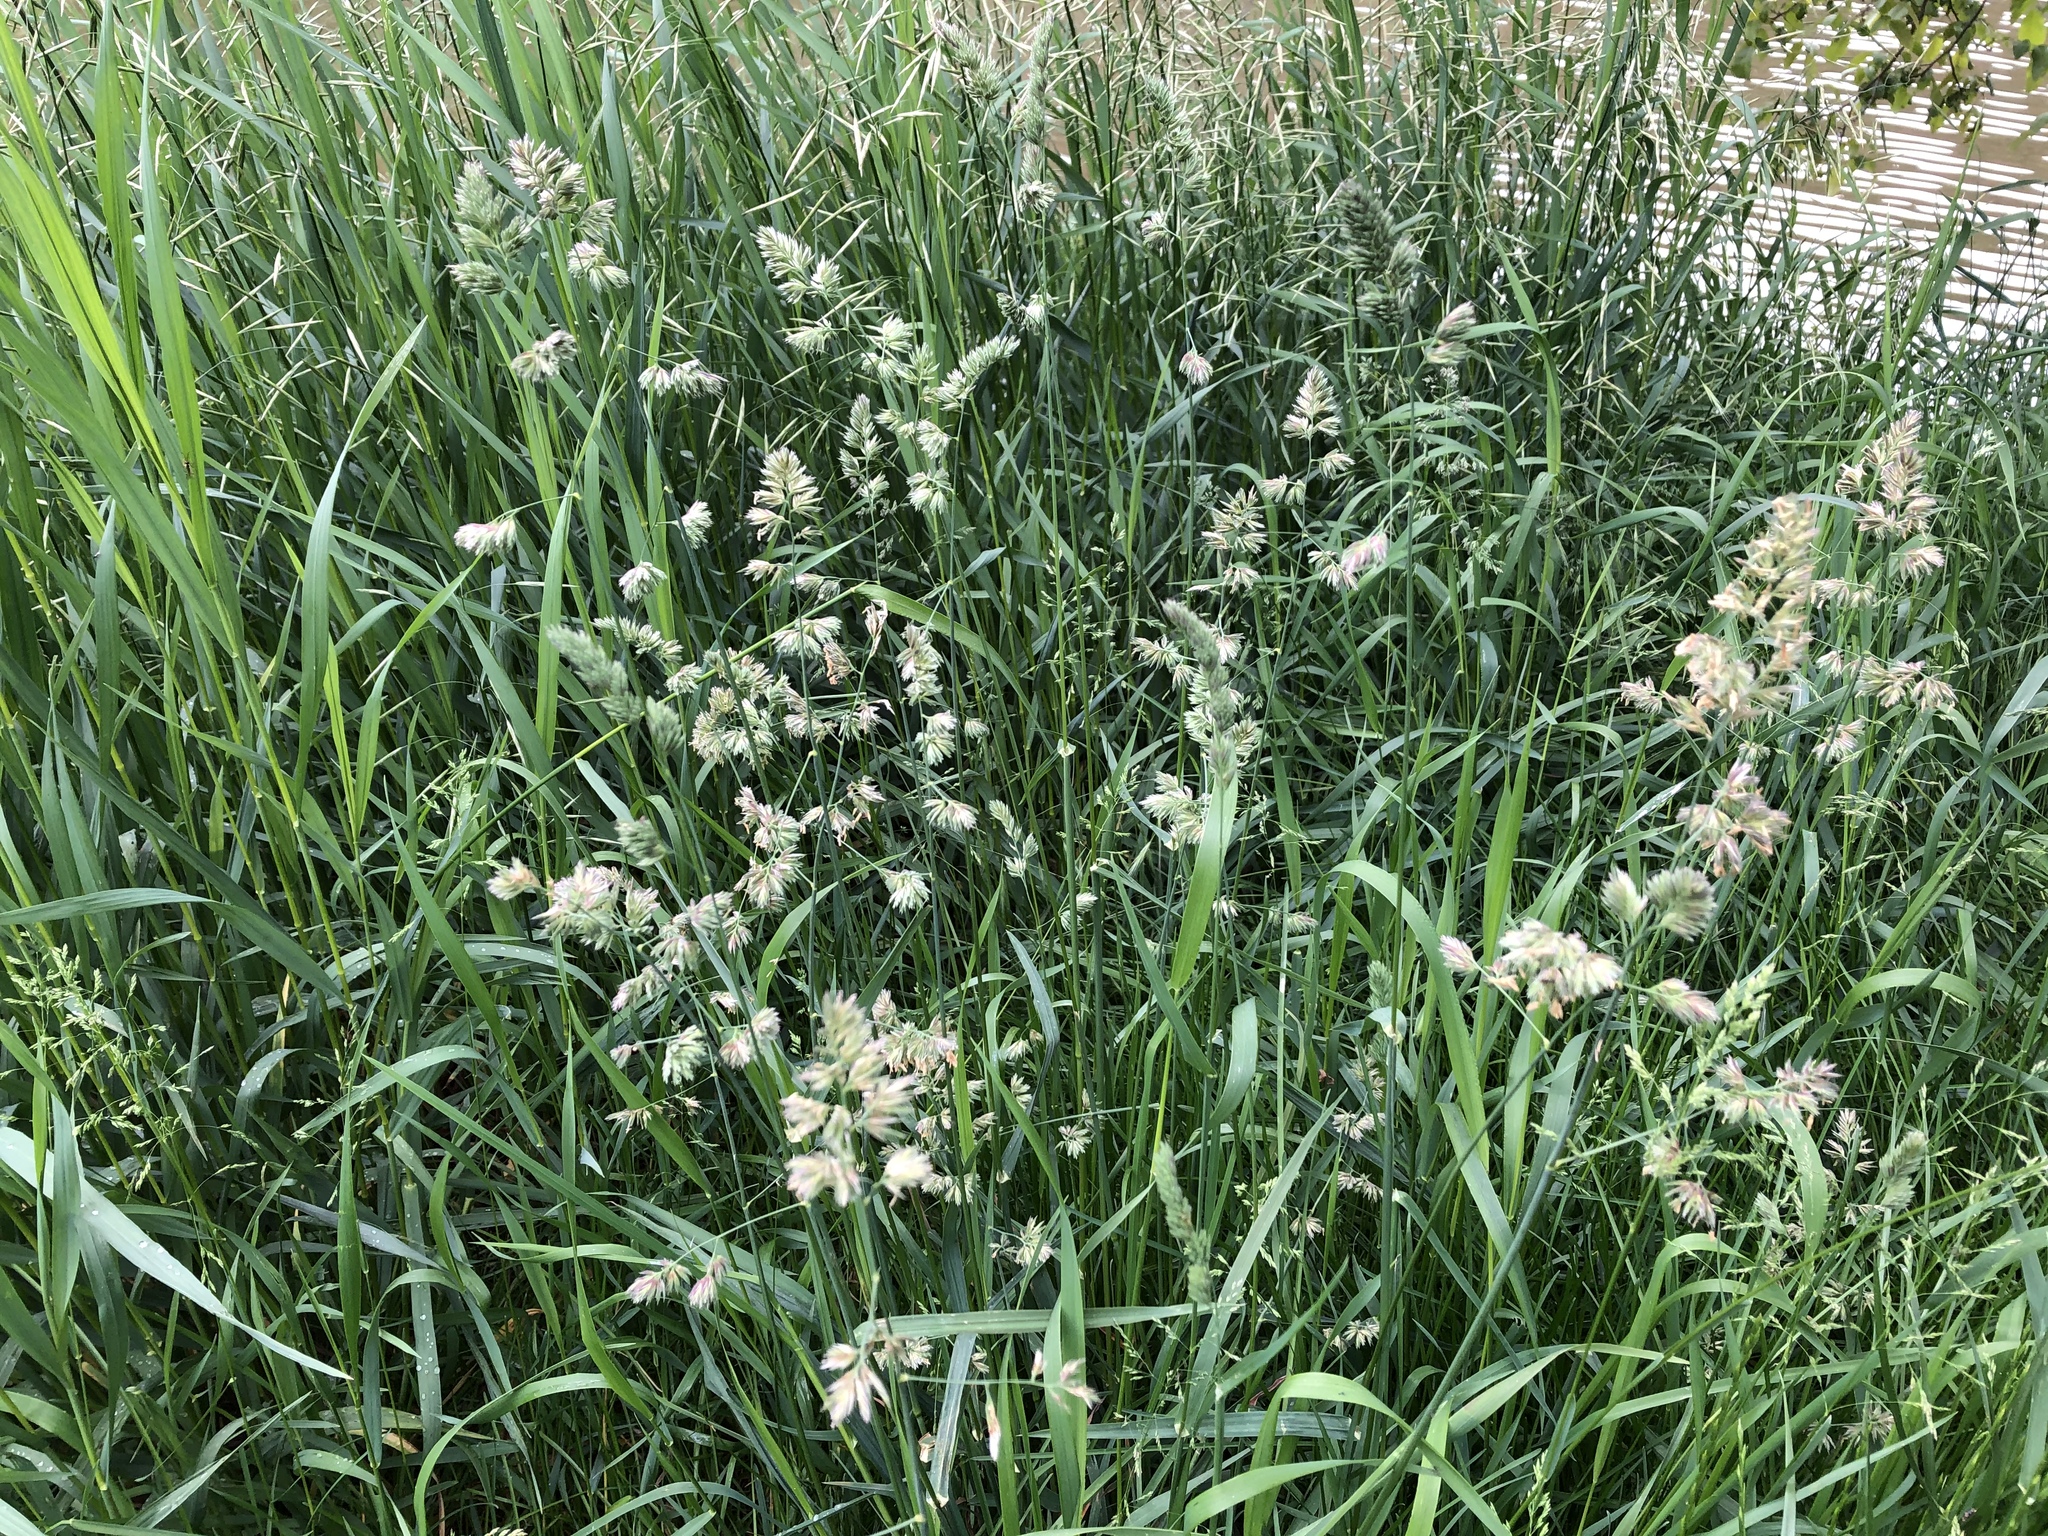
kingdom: Plantae
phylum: Tracheophyta
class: Liliopsida
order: Poales
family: Poaceae
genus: Dactylis
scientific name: Dactylis glomerata
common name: Orchardgrass
